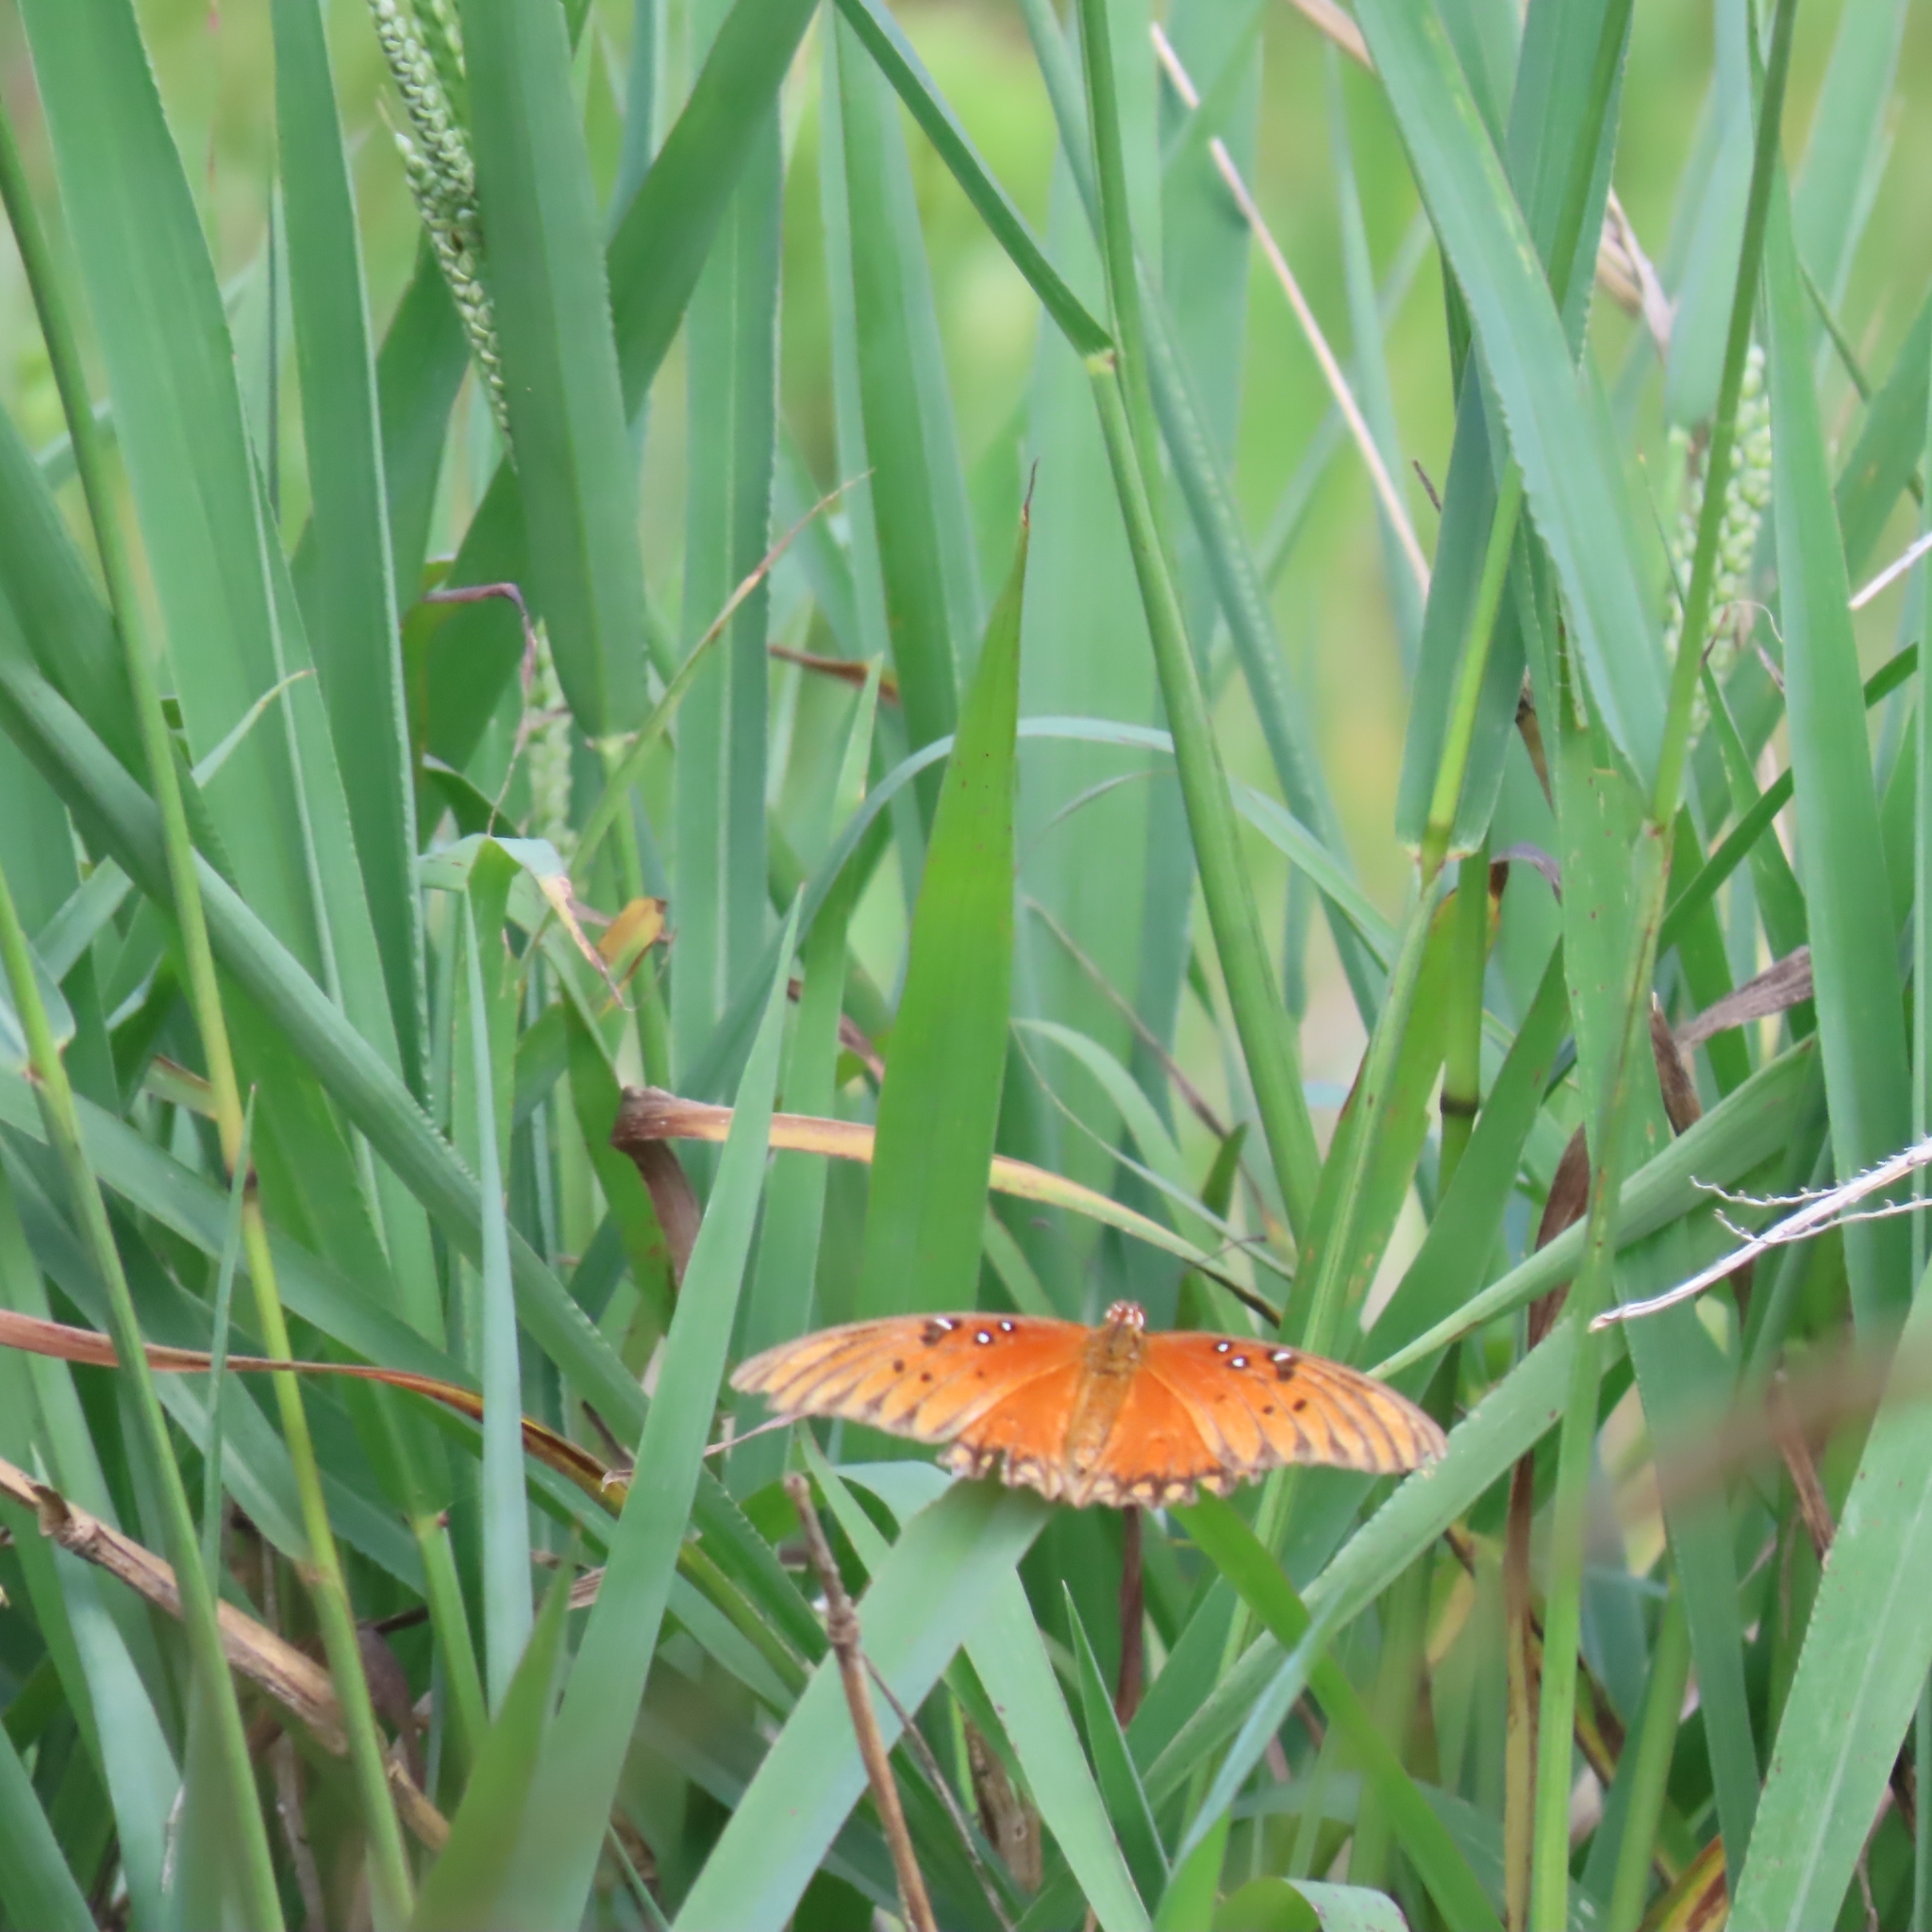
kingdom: Animalia
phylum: Arthropoda
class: Insecta
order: Lepidoptera
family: Nymphalidae
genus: Dione
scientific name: Dione vanillae
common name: Gulf fritillary
